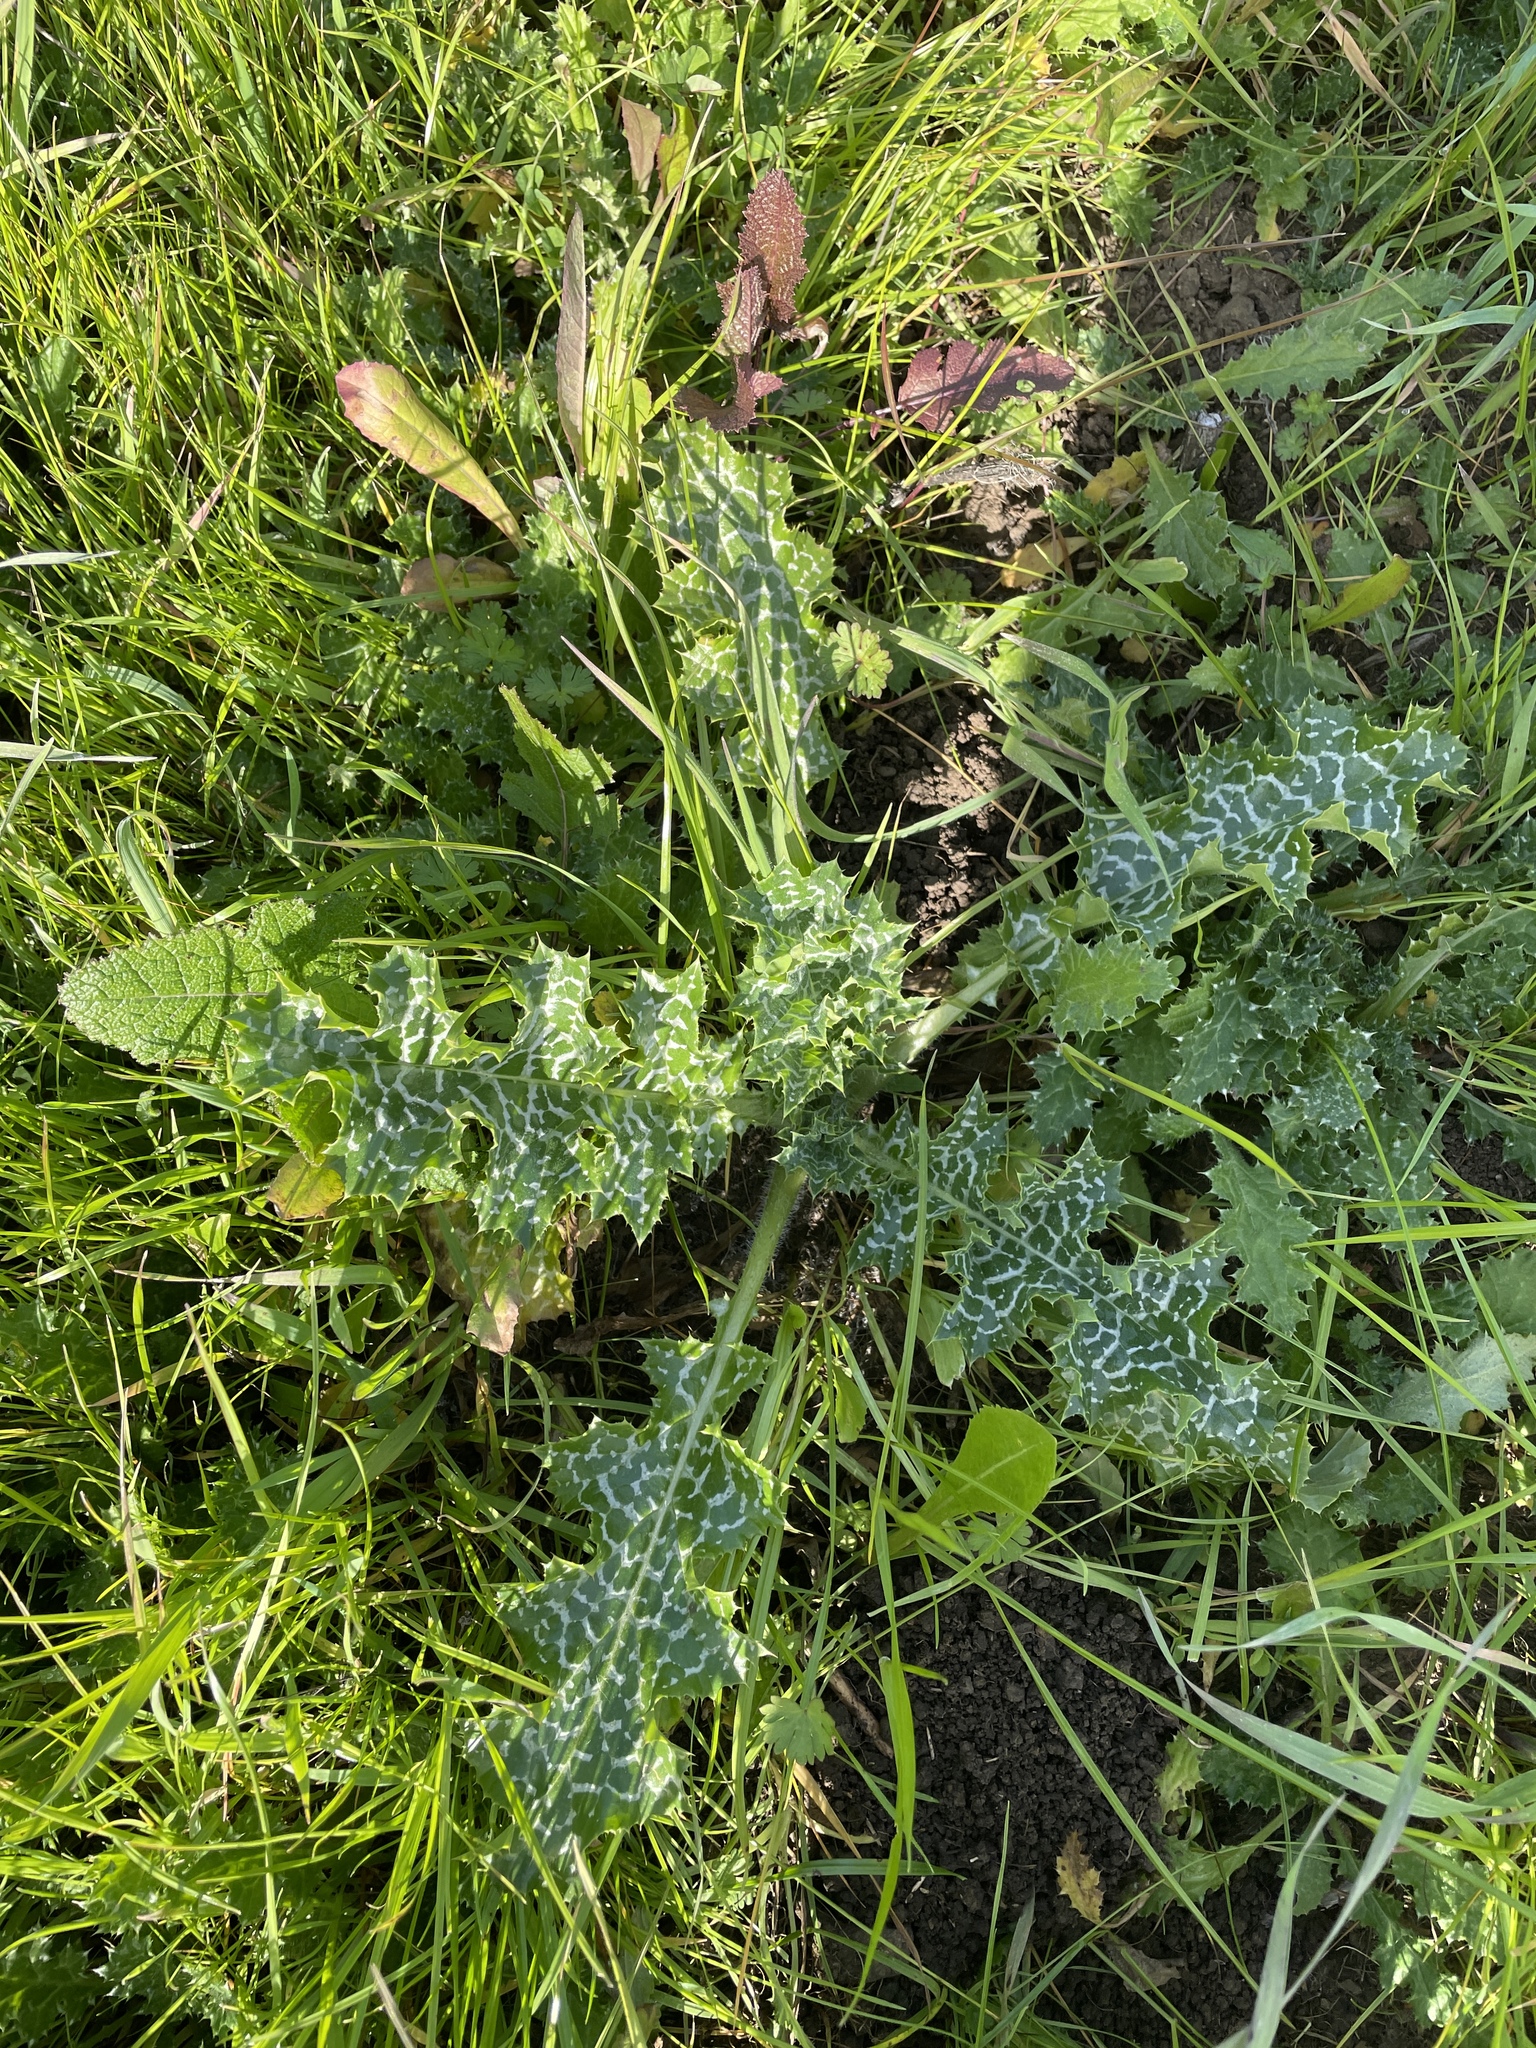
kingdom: Plantae
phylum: Tracheophyta
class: Magnoliopsida
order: Asterales
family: Asteraceae
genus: Silybum
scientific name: Silybum marianum
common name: Milk thistle
